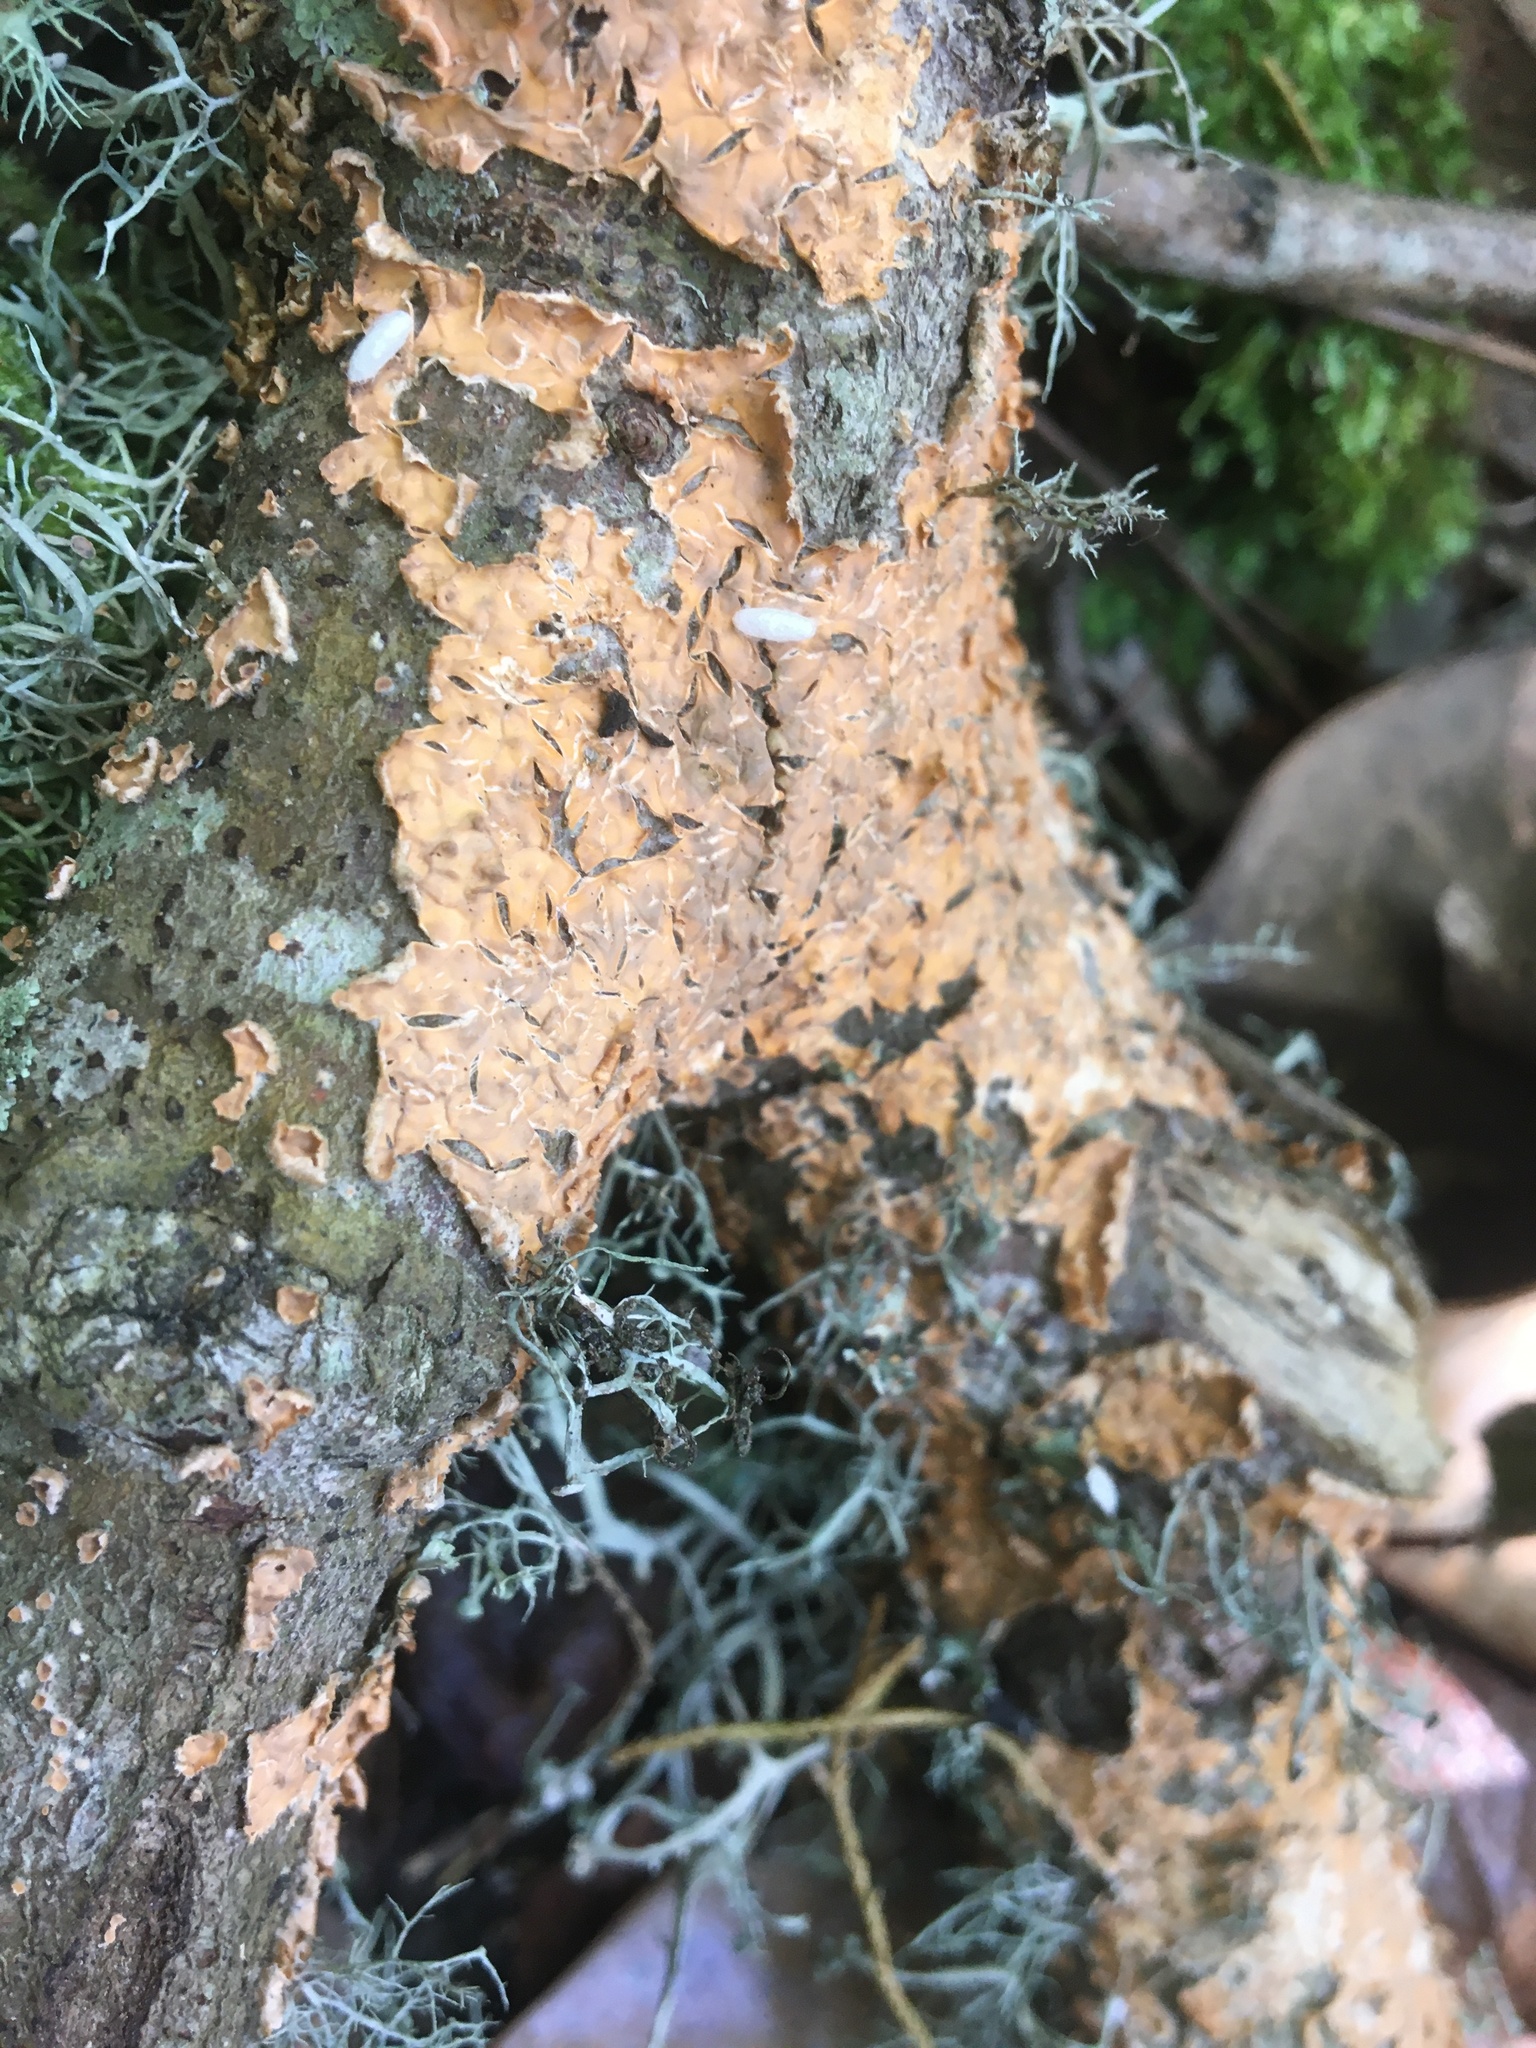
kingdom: Fungi
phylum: Basidiomycota
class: Agaricomycetes
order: Russulales
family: Stereaceae
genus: Stereum
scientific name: Stereum complicatum
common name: Crowded parchment
